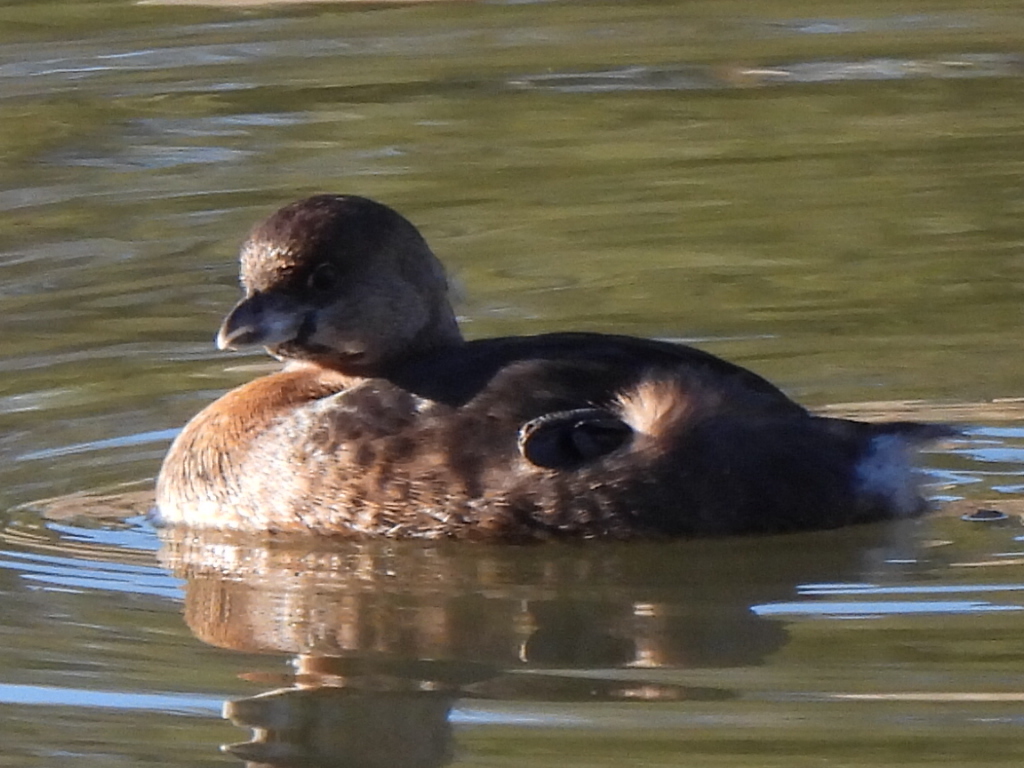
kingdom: Animalia
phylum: Chordata
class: Aves
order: Podicipediformes
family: Podicipedidae
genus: Podilymbus
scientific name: Podilymbus podiceps
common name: Pied-billed grebe
